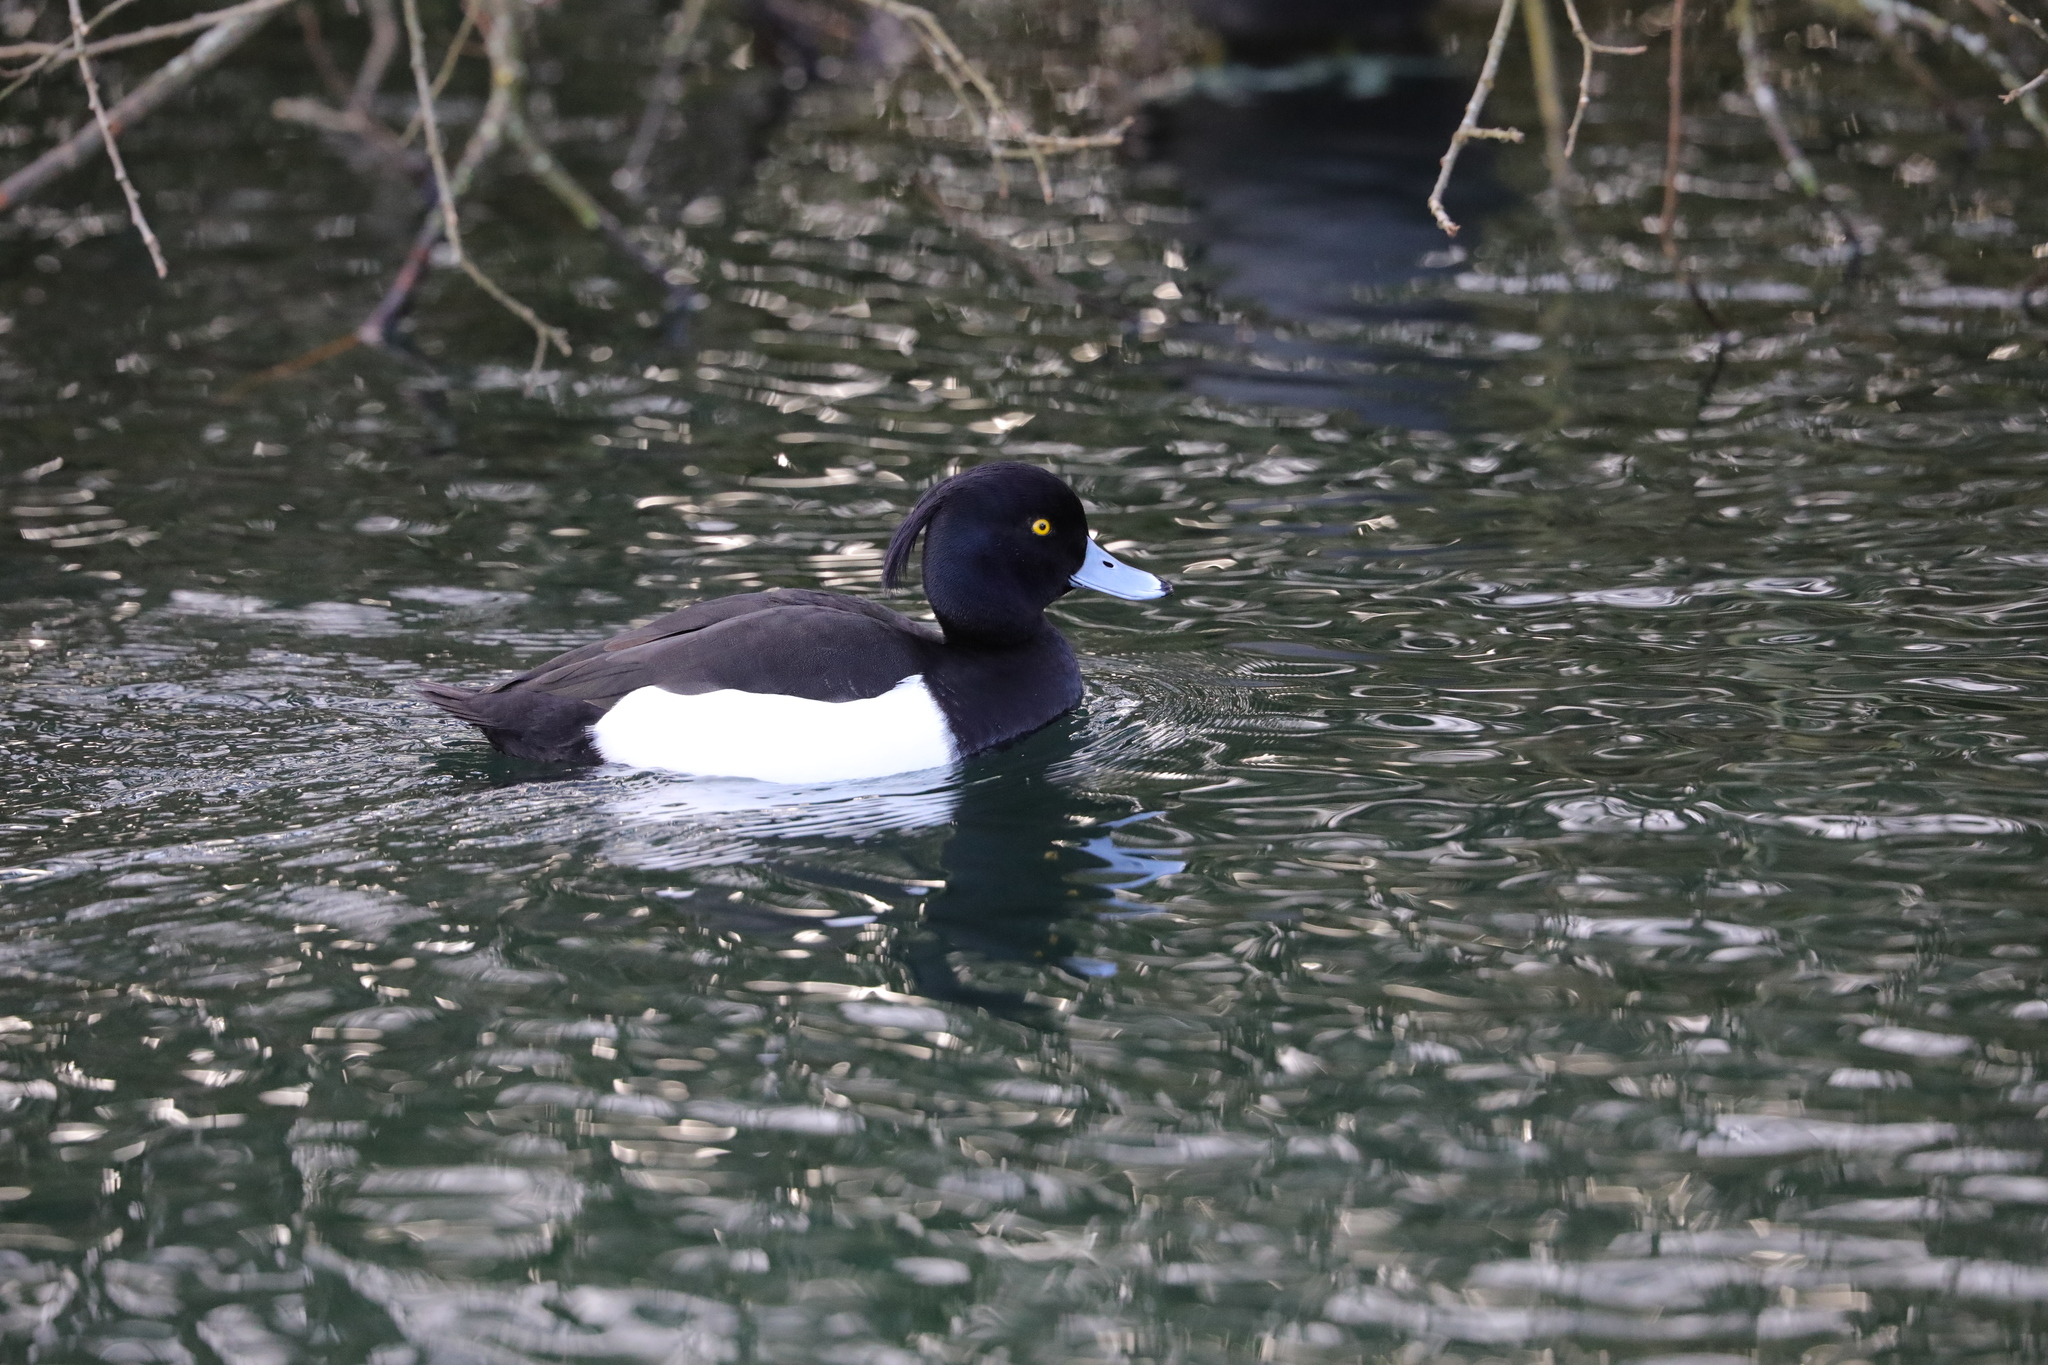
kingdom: Animalia
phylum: Chordata
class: Aves
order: Anseriformes
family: Anatidae
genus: Aythya
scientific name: Aythya fuligula
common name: Tufted duck
